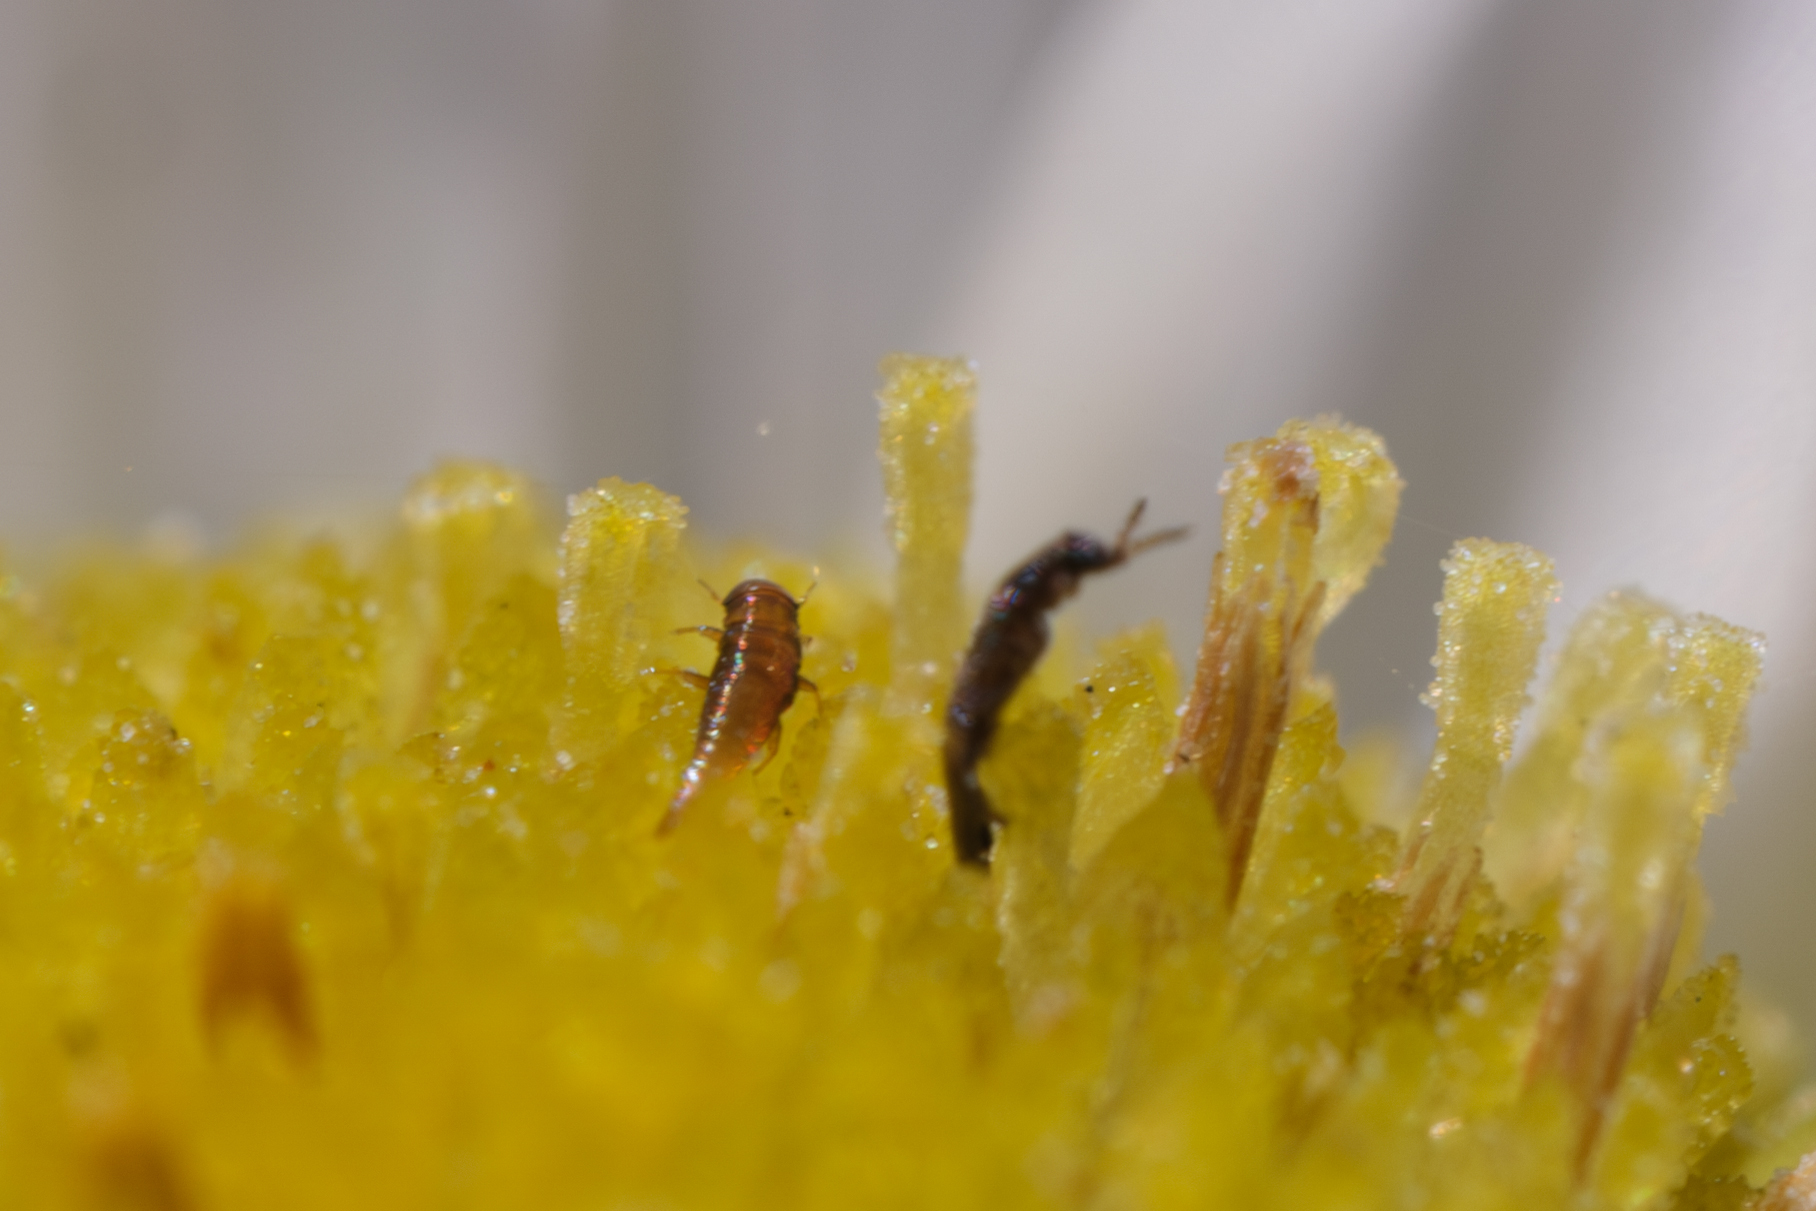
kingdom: Animalia
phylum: Arthropoda
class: Insecta
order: Coleoptera
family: Ripiphoridae
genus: Ripiphorus
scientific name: Ripiphorus
